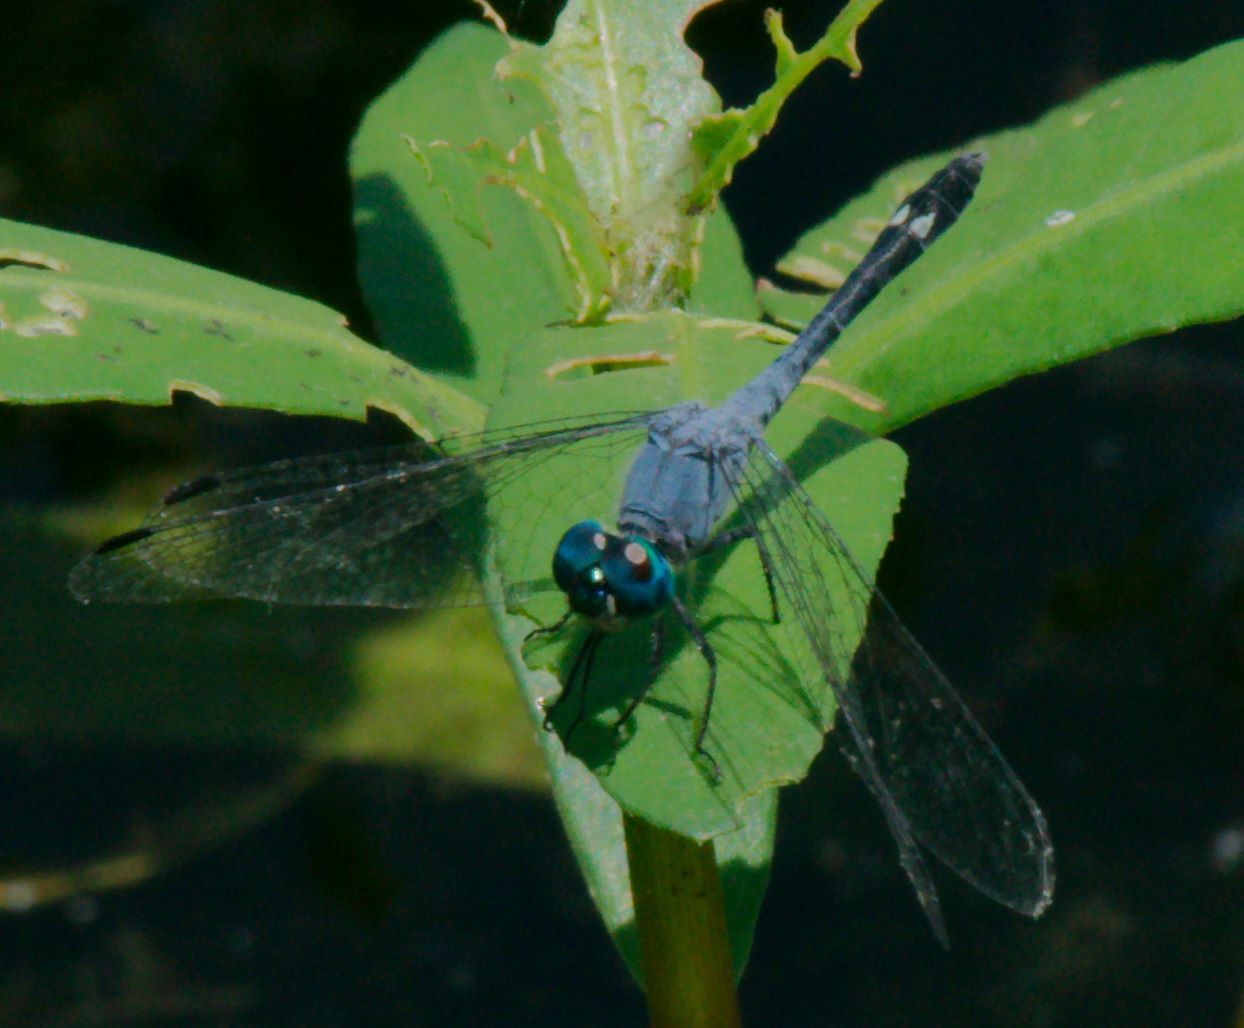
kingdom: Animalia
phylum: Arthropoda
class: Insecta
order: Odonata
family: Libellulidae
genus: Micrathyria
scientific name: Micrathyria aequalis
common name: Spot-tailed dasher
